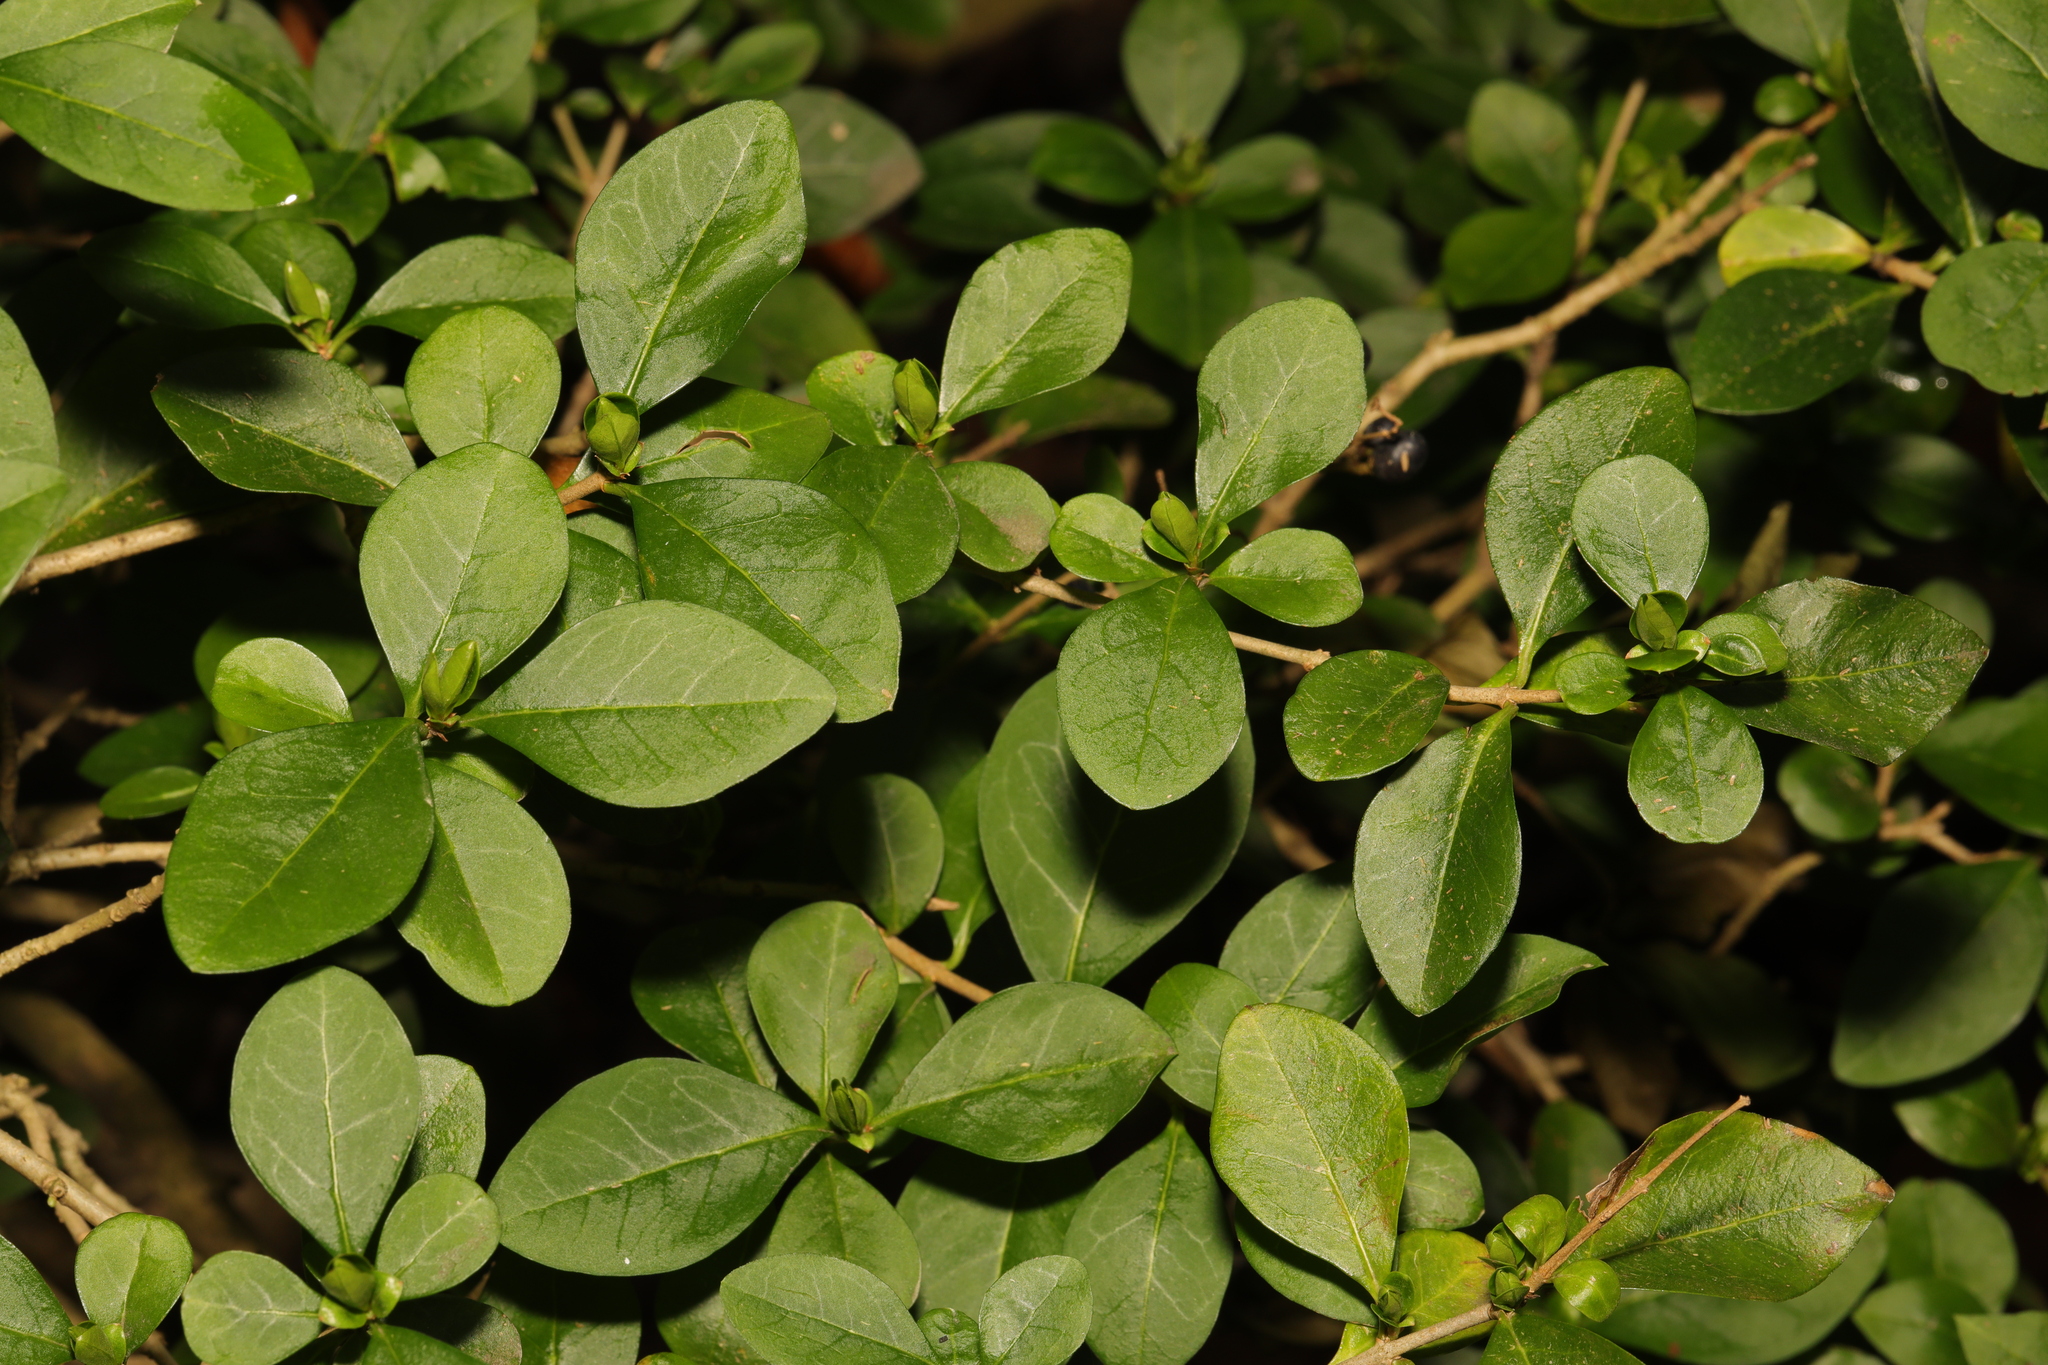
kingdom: Plantae
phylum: Tracheophyta
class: Magnoliopsida
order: Lamiales
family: Oleaceae
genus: Ligustrum
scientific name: Ligustrum ovalifolium
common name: California privet
